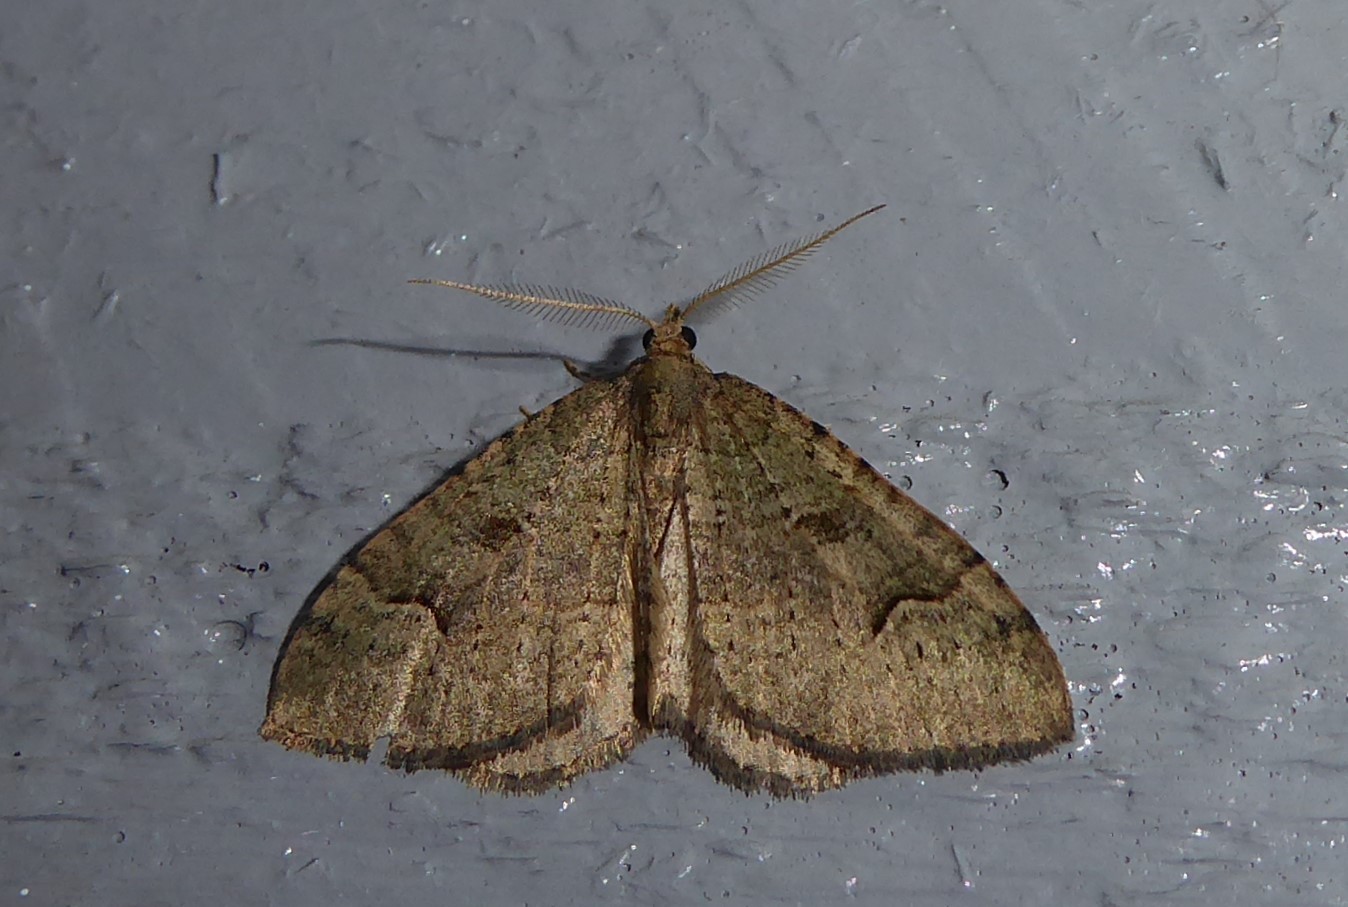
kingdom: Animalia
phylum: Arthropoda
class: Insecta
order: Lepidoptera
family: Geometridae
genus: Epyaxa
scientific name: Epyaxa rosearia
